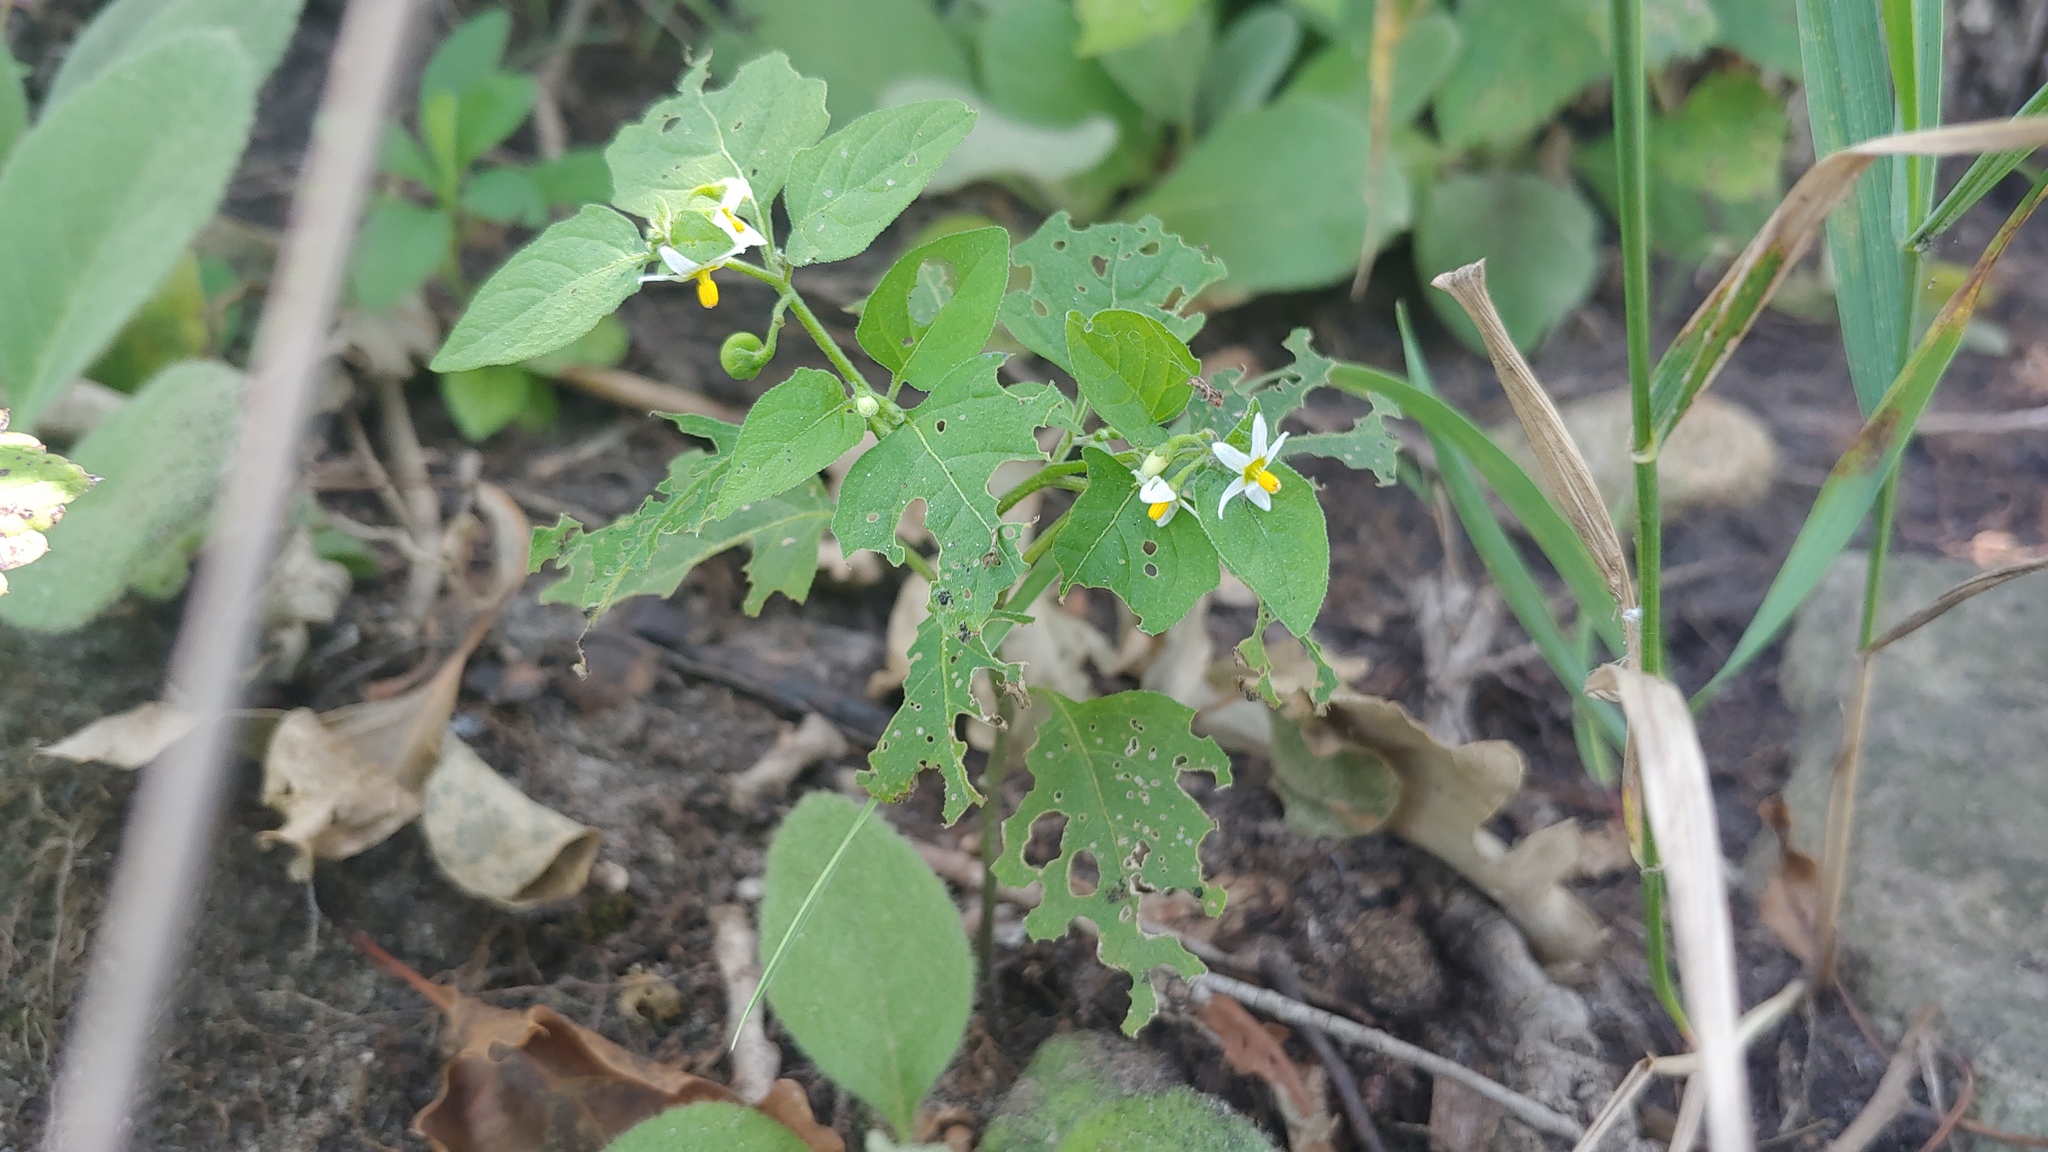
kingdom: Plantae
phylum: Tracheophyta
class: Magnoliopsida
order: Solanales
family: Solanaceae
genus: Solanum
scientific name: Solanum emulans
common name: Eastern black nightshade
